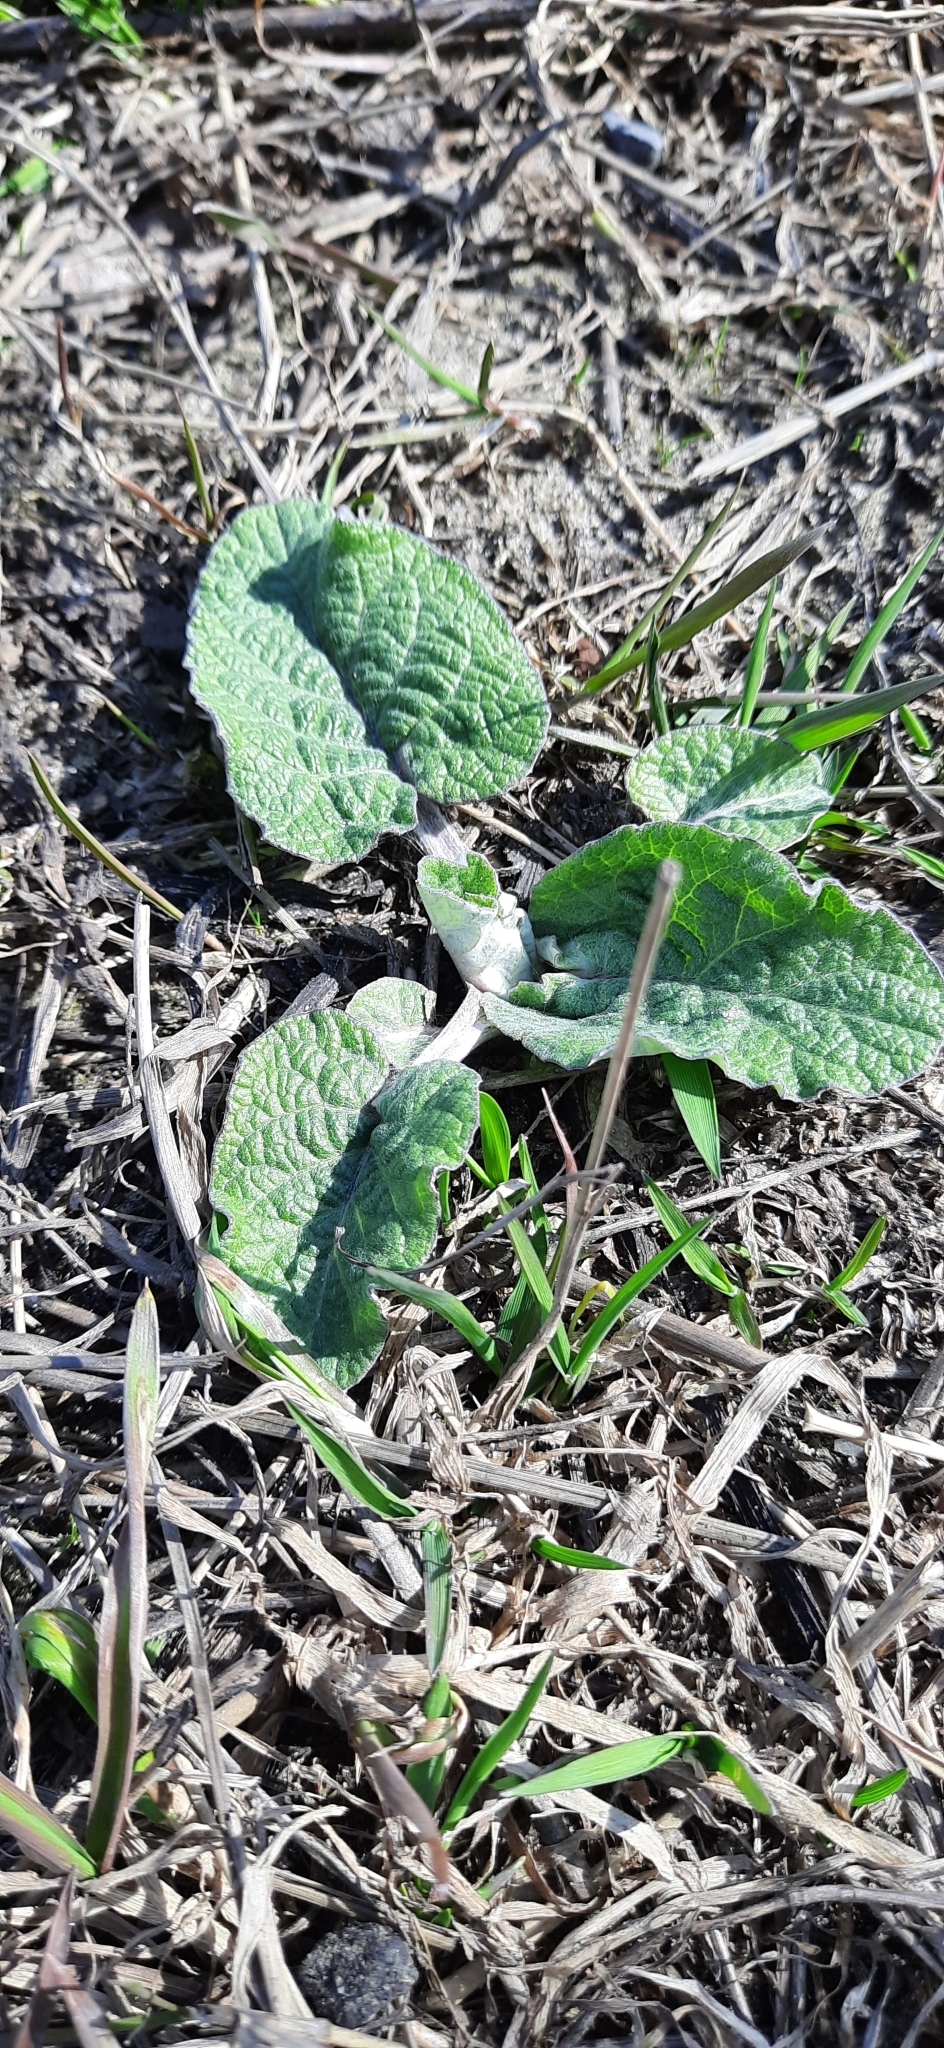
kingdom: Plantae
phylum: Tracheophyta
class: Magnoliopsida
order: Asterales
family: Asteraceae
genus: Arctium
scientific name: Arctium tomentosum
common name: Woolly burdock
